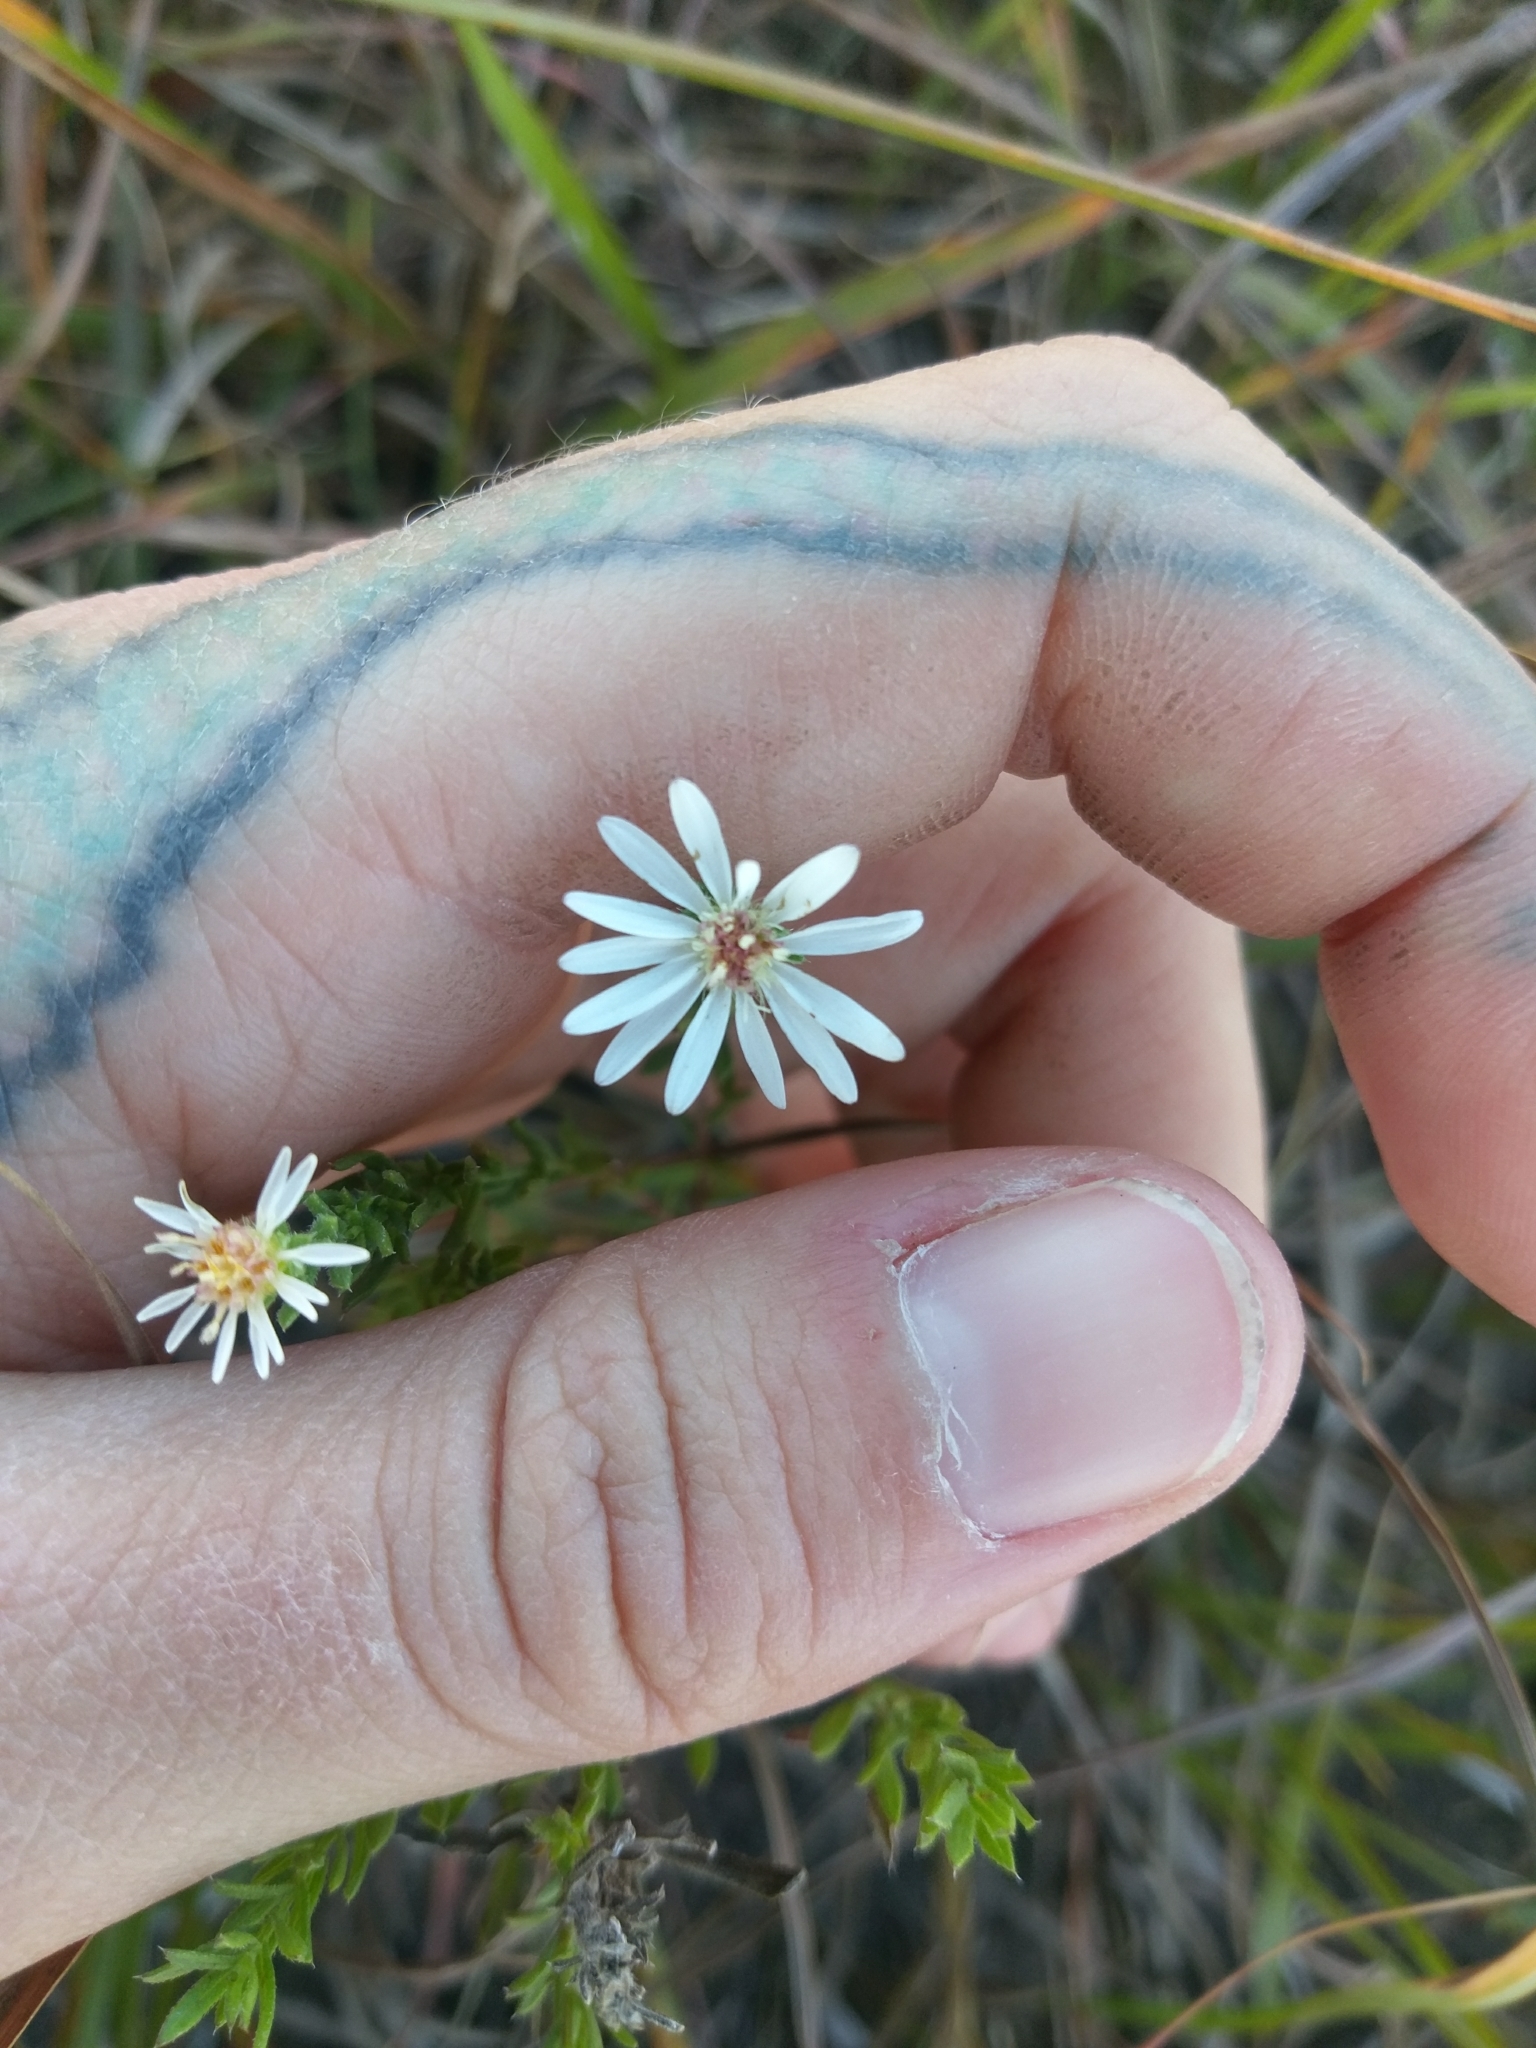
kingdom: Plantae
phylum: Tracheophyta
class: Magnoliopsida
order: Asterales
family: Asteraceae
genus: Symphyotrichum
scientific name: Symphyotrichum ericoides
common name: Heath aster
